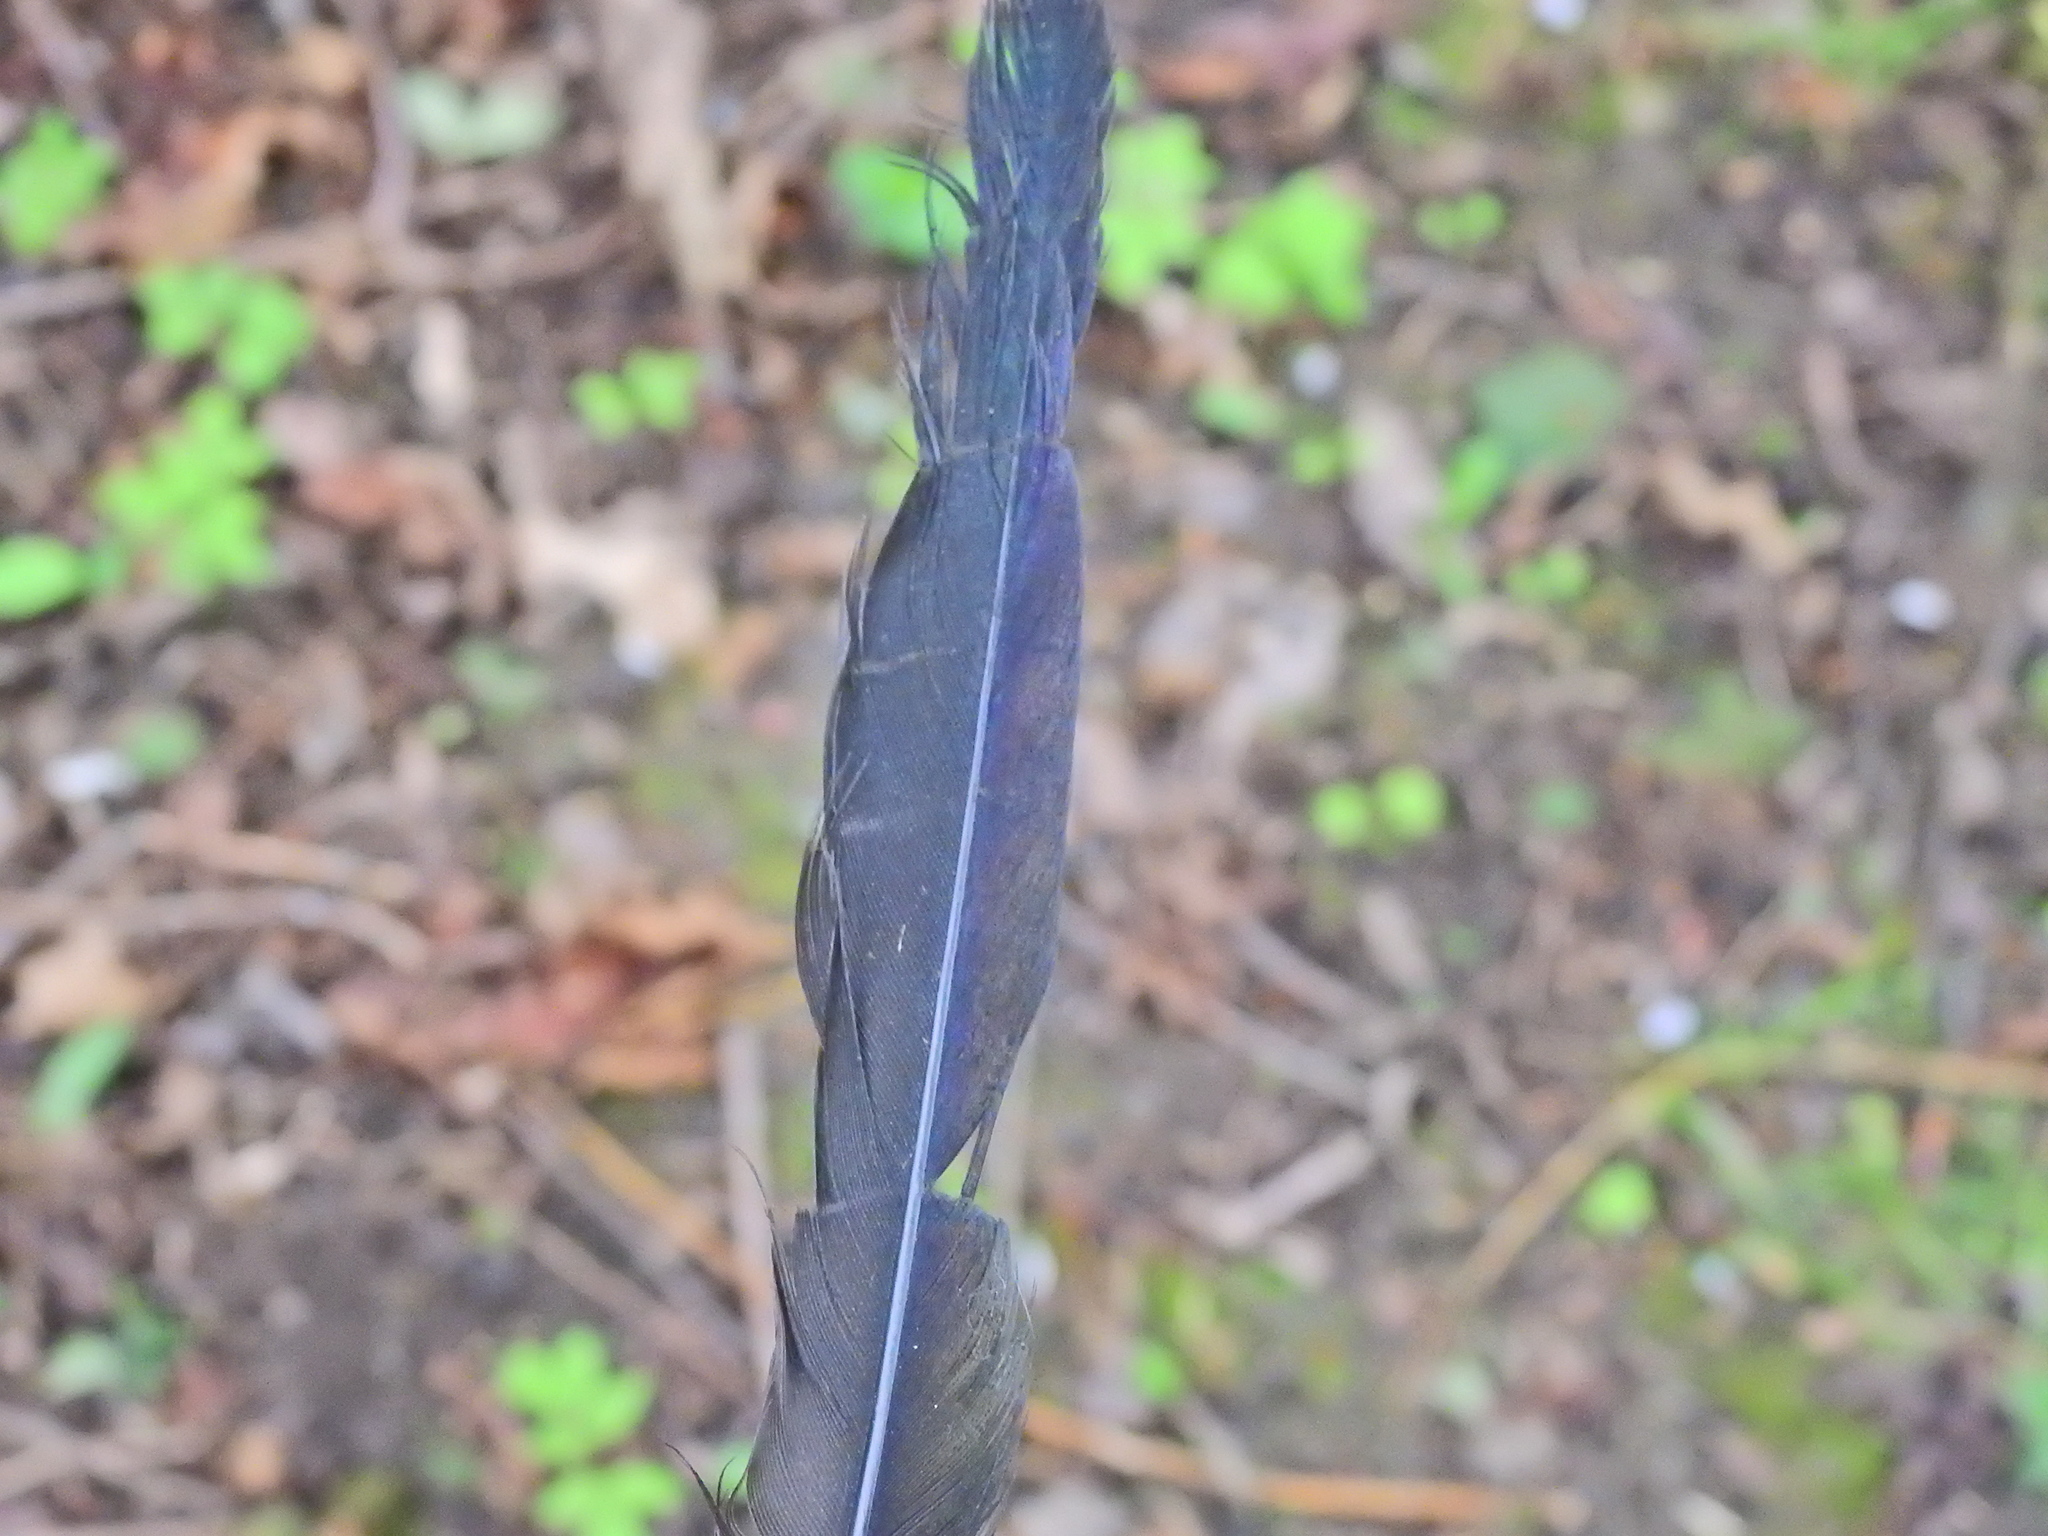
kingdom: Animalia
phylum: Chordata
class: Aves
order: Passeriformes
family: Corvidae
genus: Pica
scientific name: Pica pica
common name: Eurasian magpie
